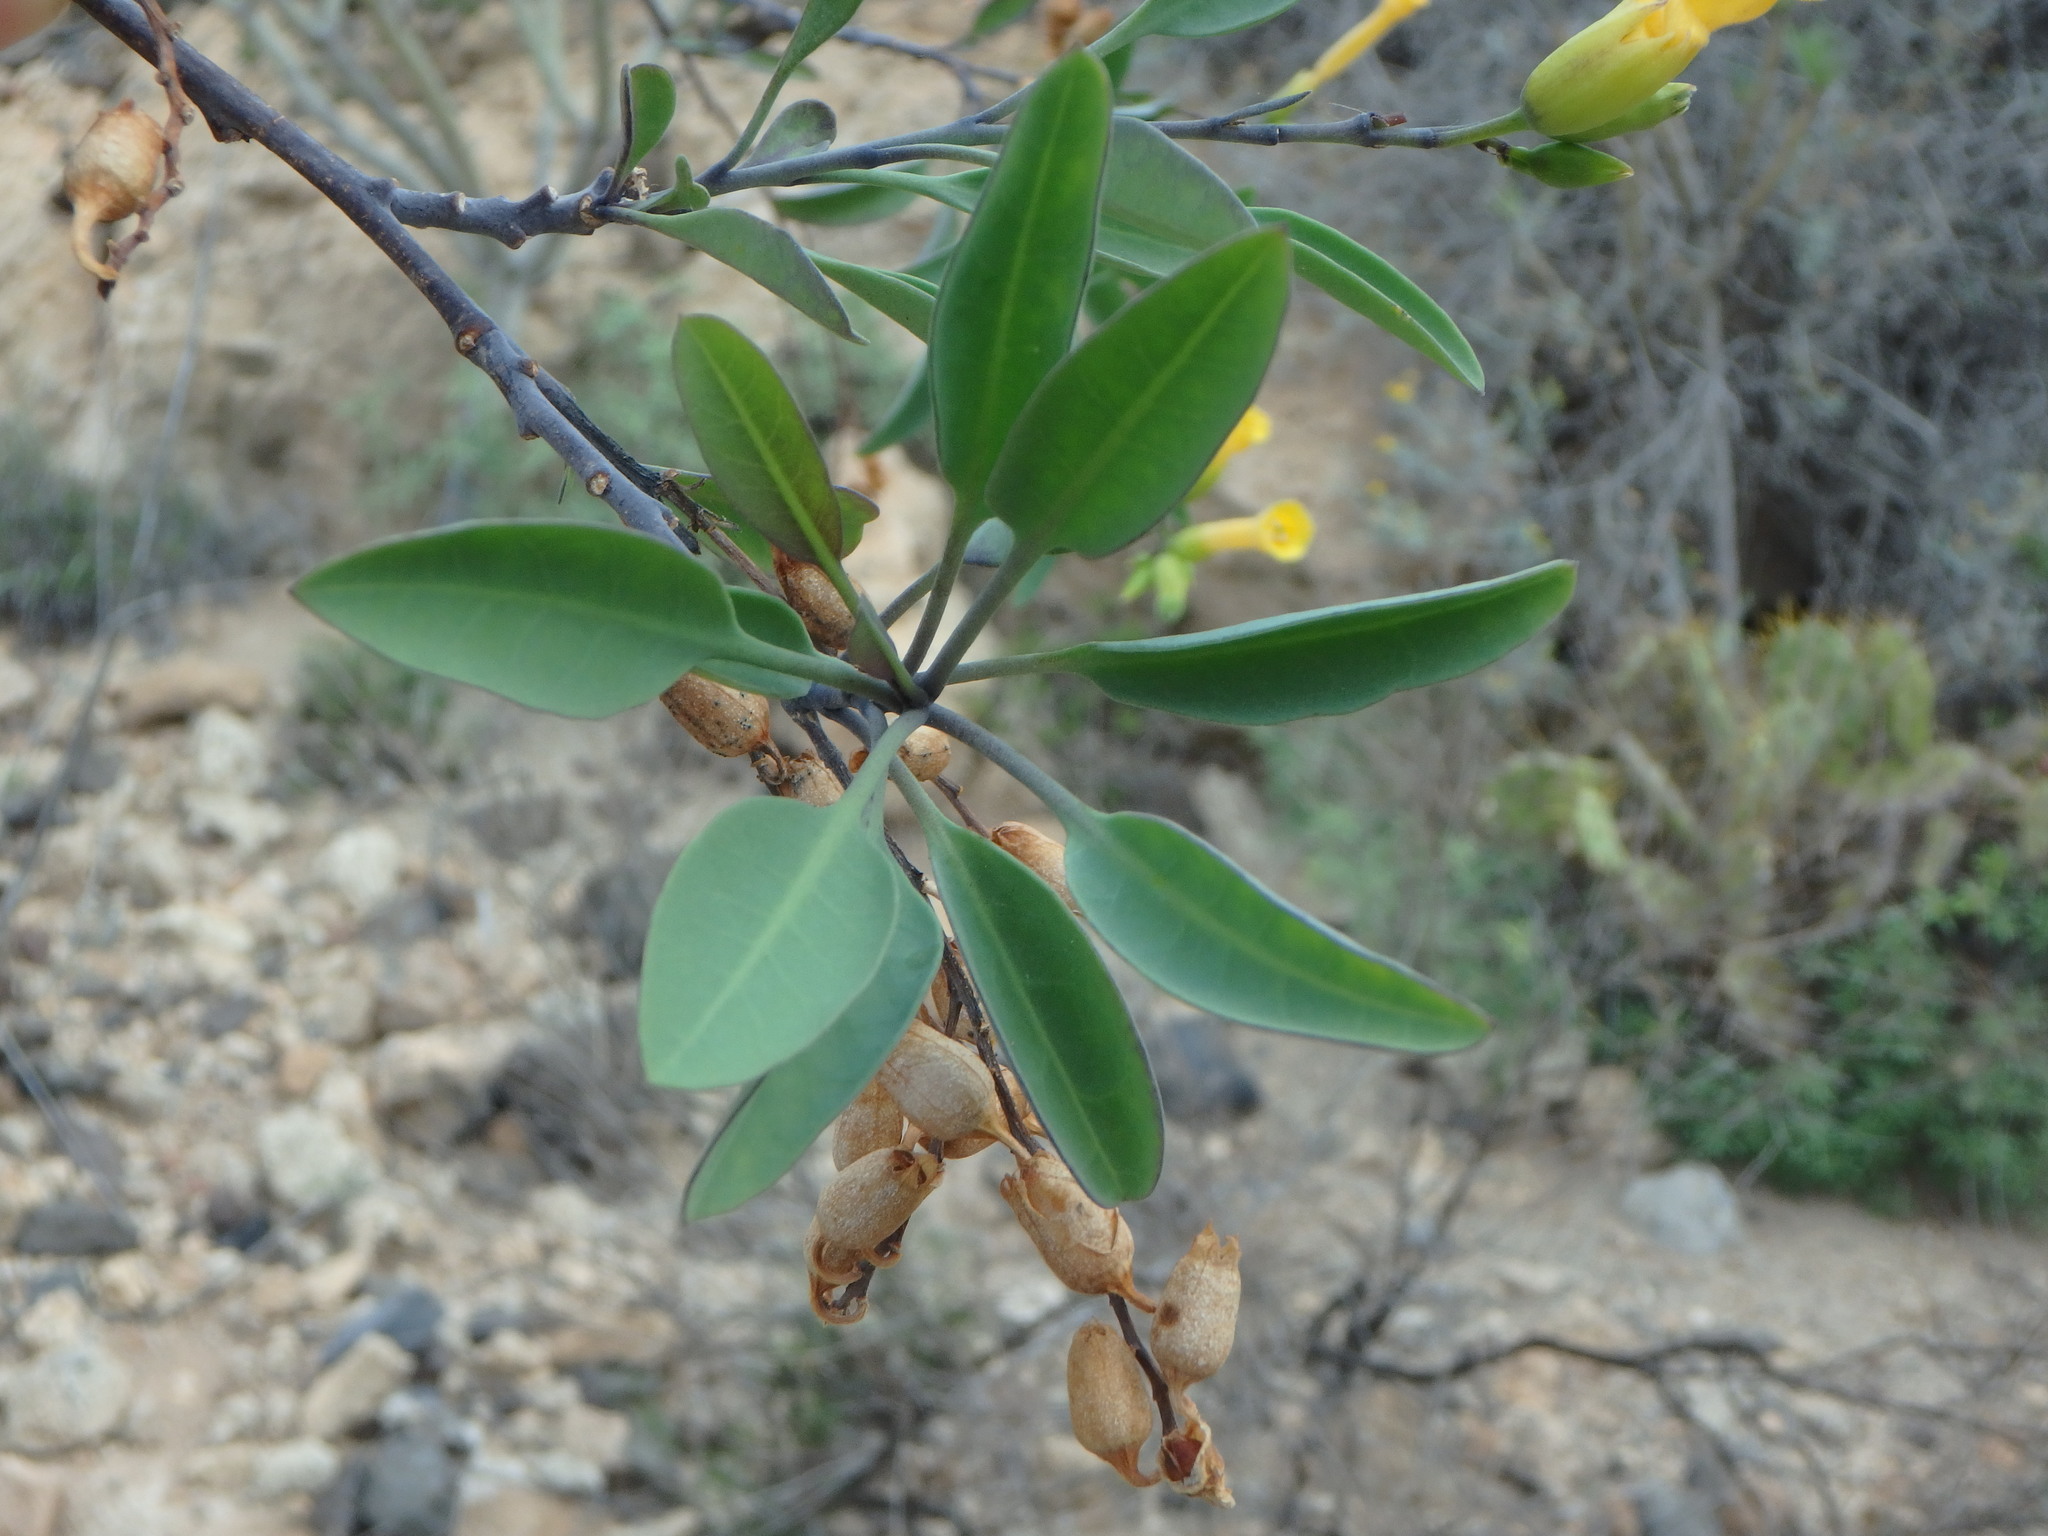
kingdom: Plantae
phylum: Tracheophyta
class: Magnoliopsida
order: Solanales
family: Solanaceae
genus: Nicotiana
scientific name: Nicotiana glauca
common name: Tree tobacco
